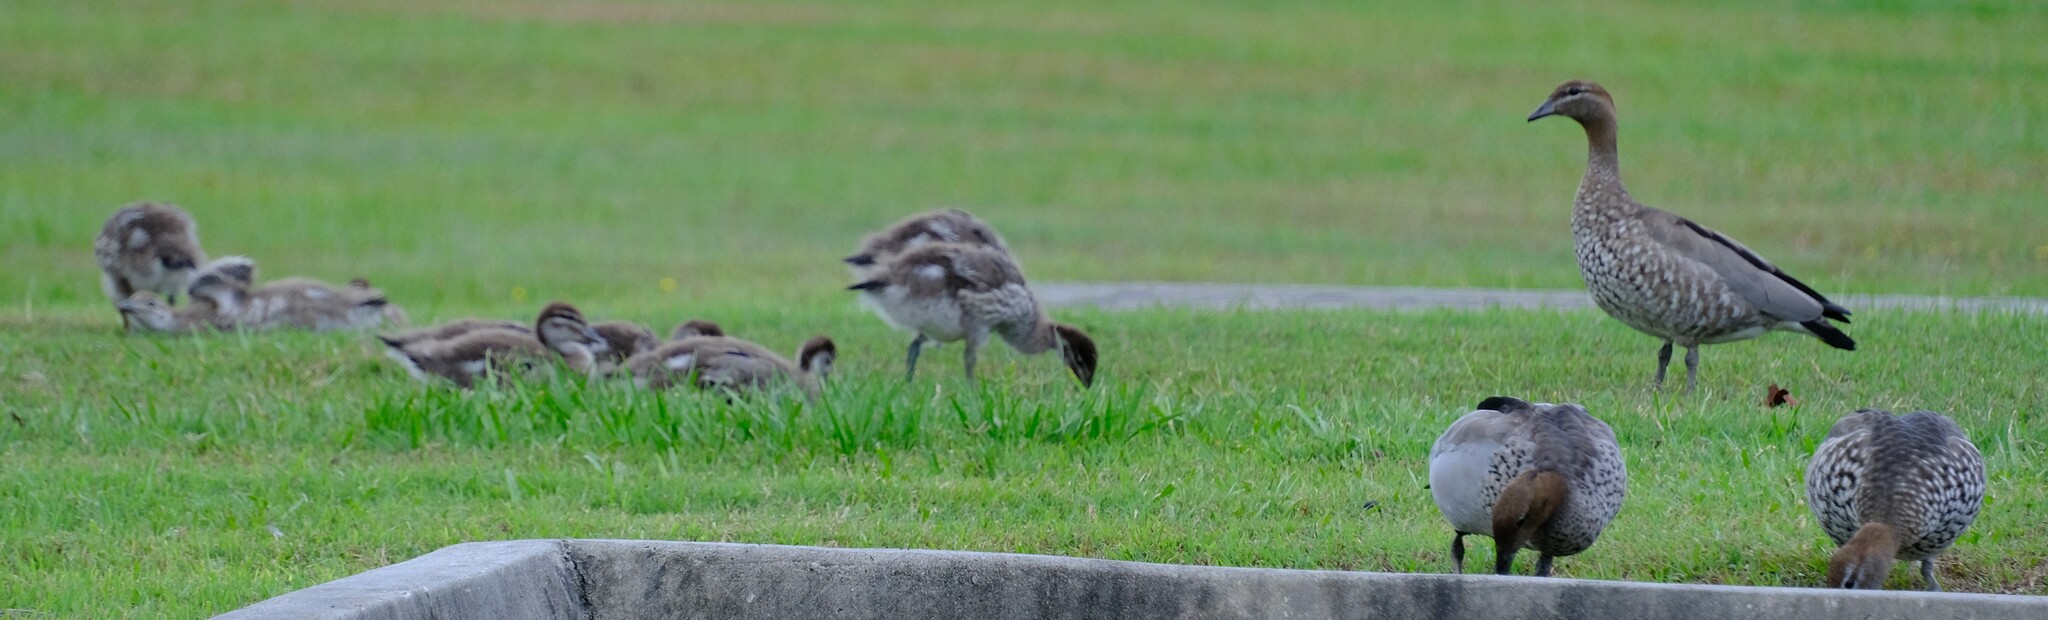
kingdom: Animalia
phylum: Chordata
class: Aves
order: Anseriformes
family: Anatidae
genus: Chenonetta
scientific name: Chenonetta jubata
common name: Maned duck
